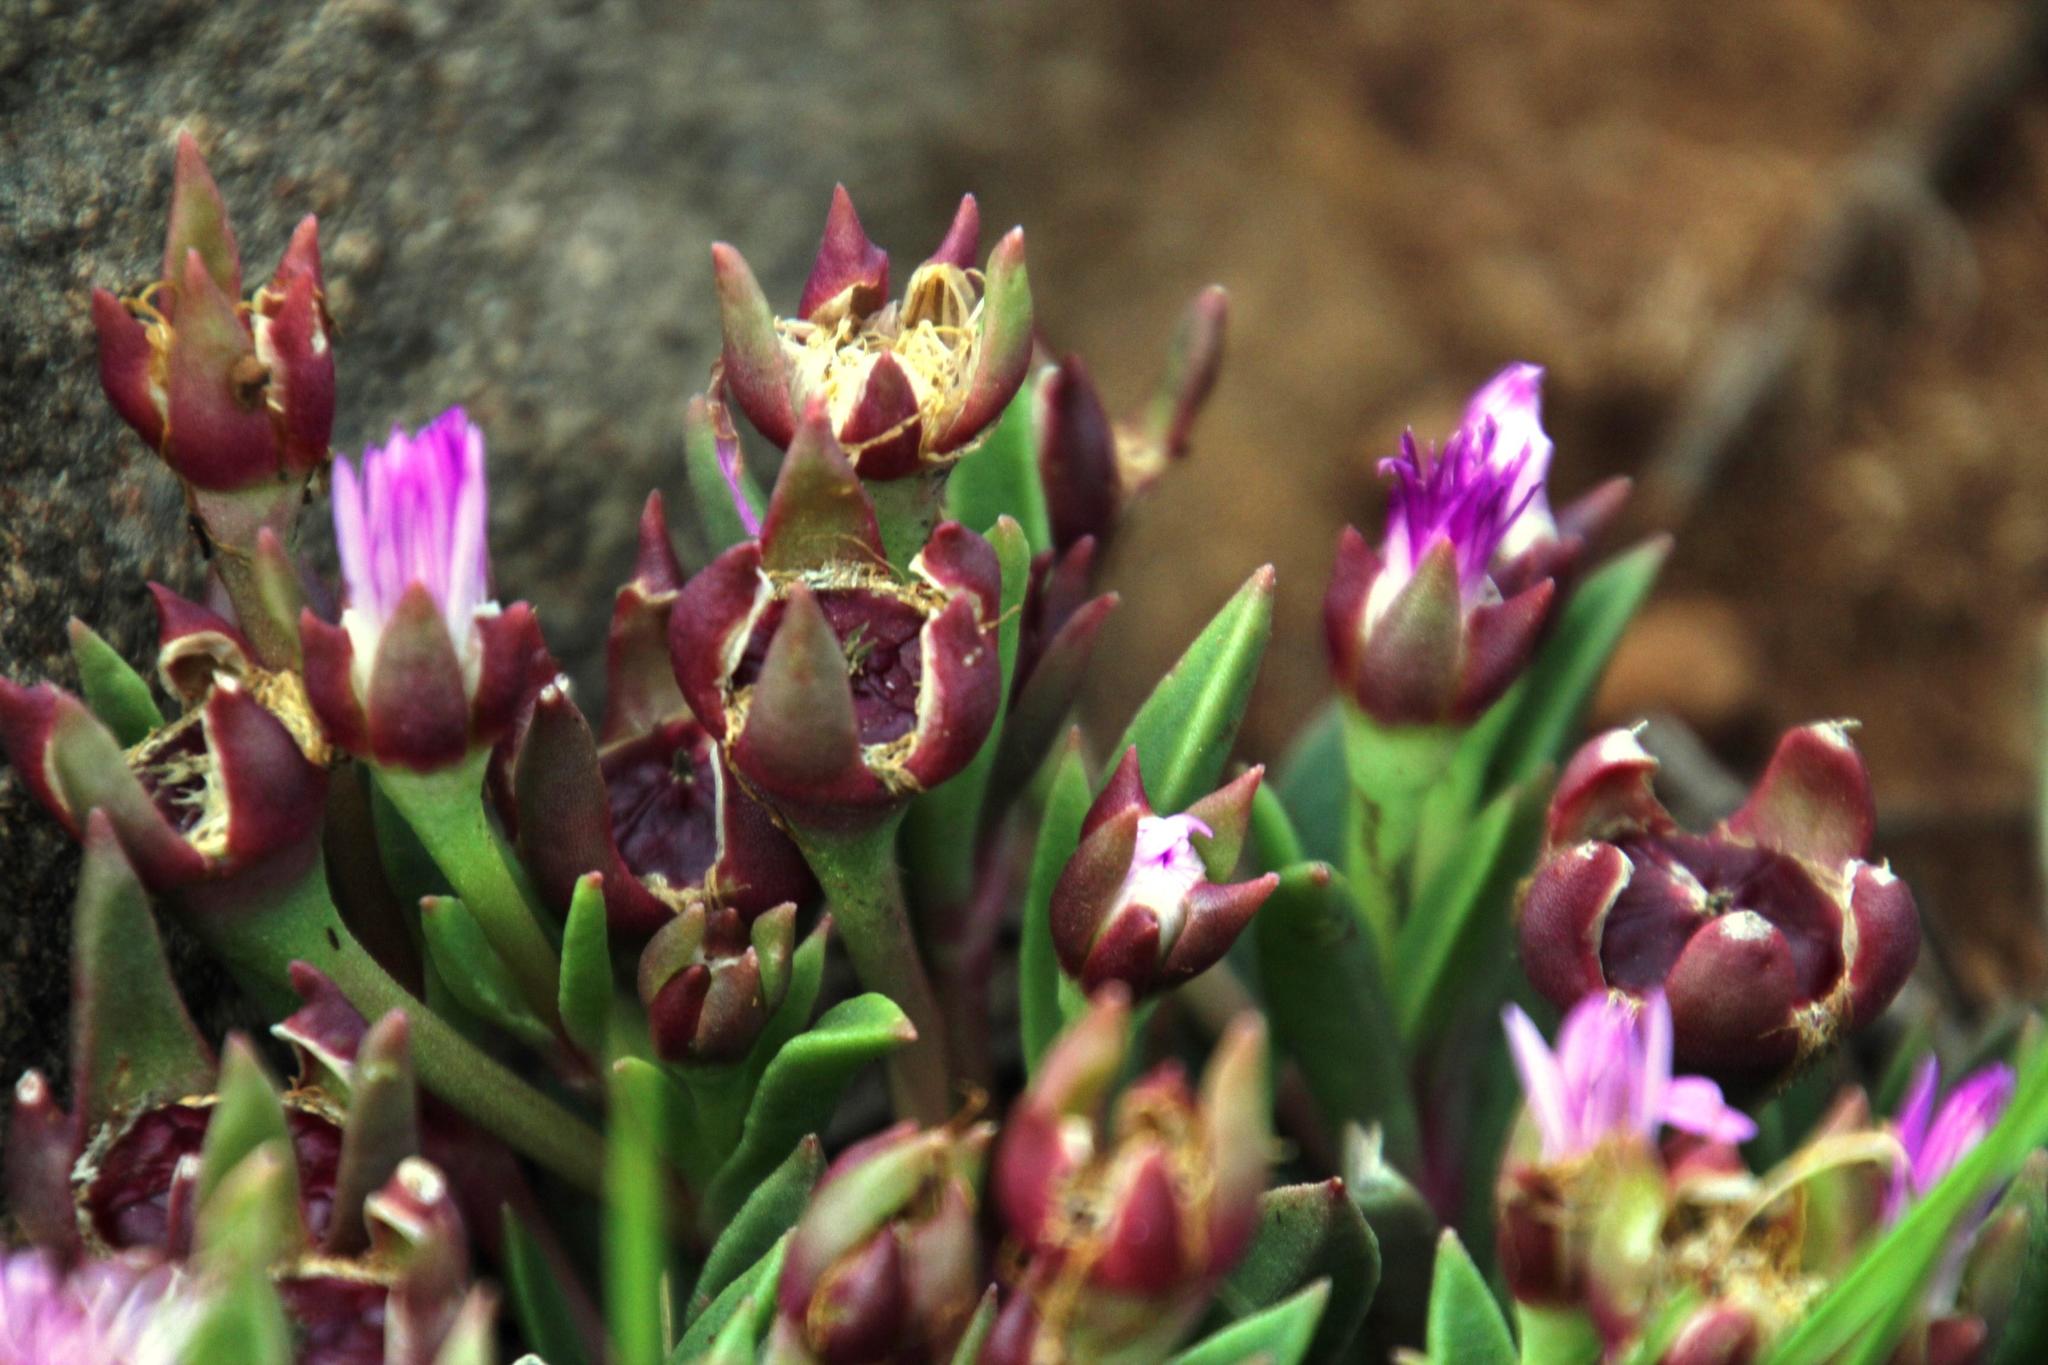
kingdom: Plantae
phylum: Tracheophyta
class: Magnoliopsida
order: Caryophyllales
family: Aizoaceae
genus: Delosperma
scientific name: Delosperma carolinense
